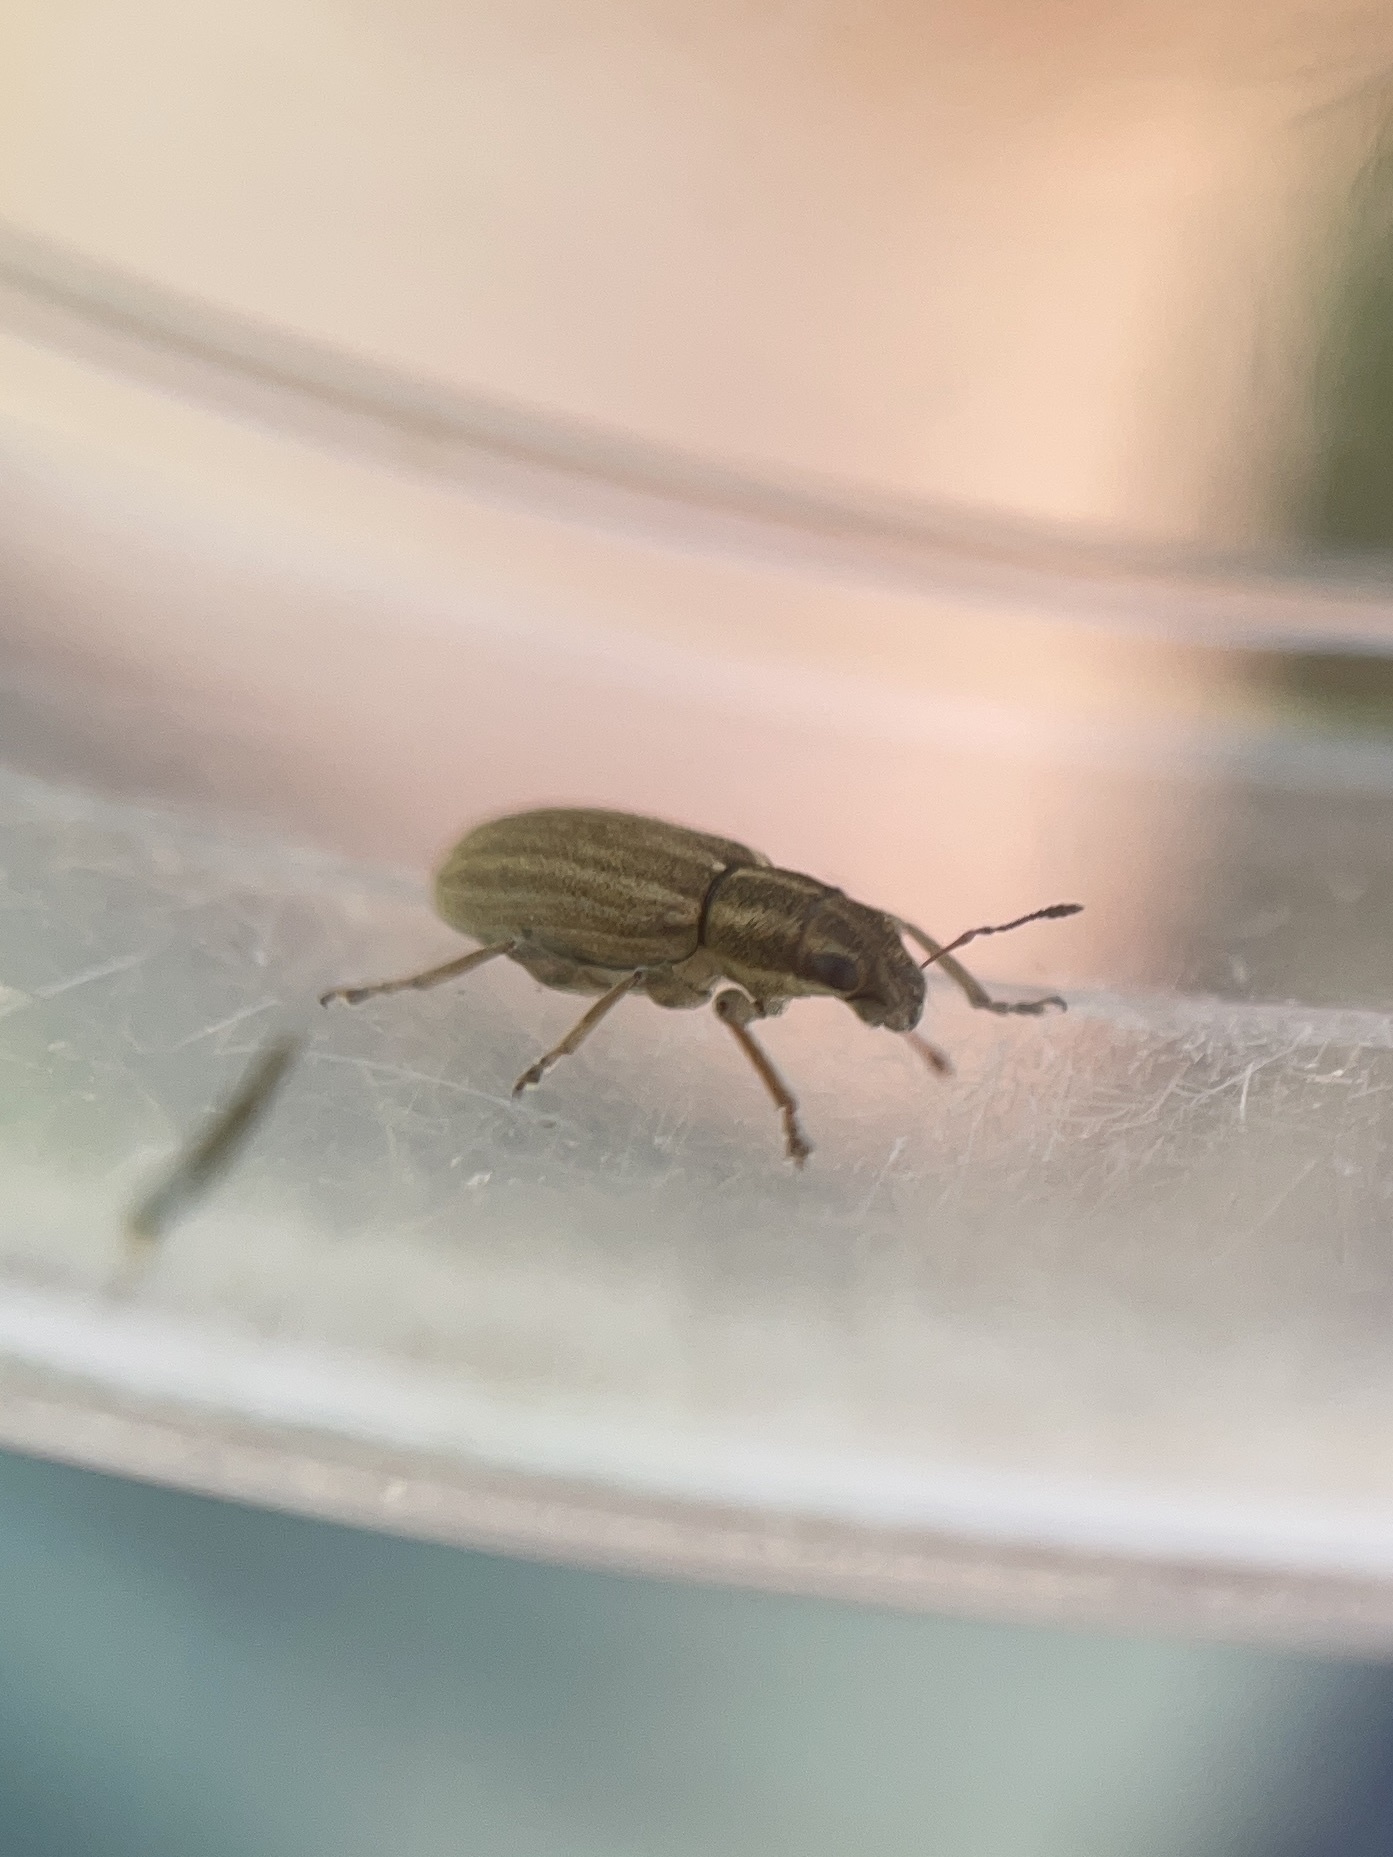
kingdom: Animalia
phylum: Arthropoda
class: Insecta
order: Coleoptera
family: Curculionidae
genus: Sitona
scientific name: Sitona lineatus
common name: Weevil
